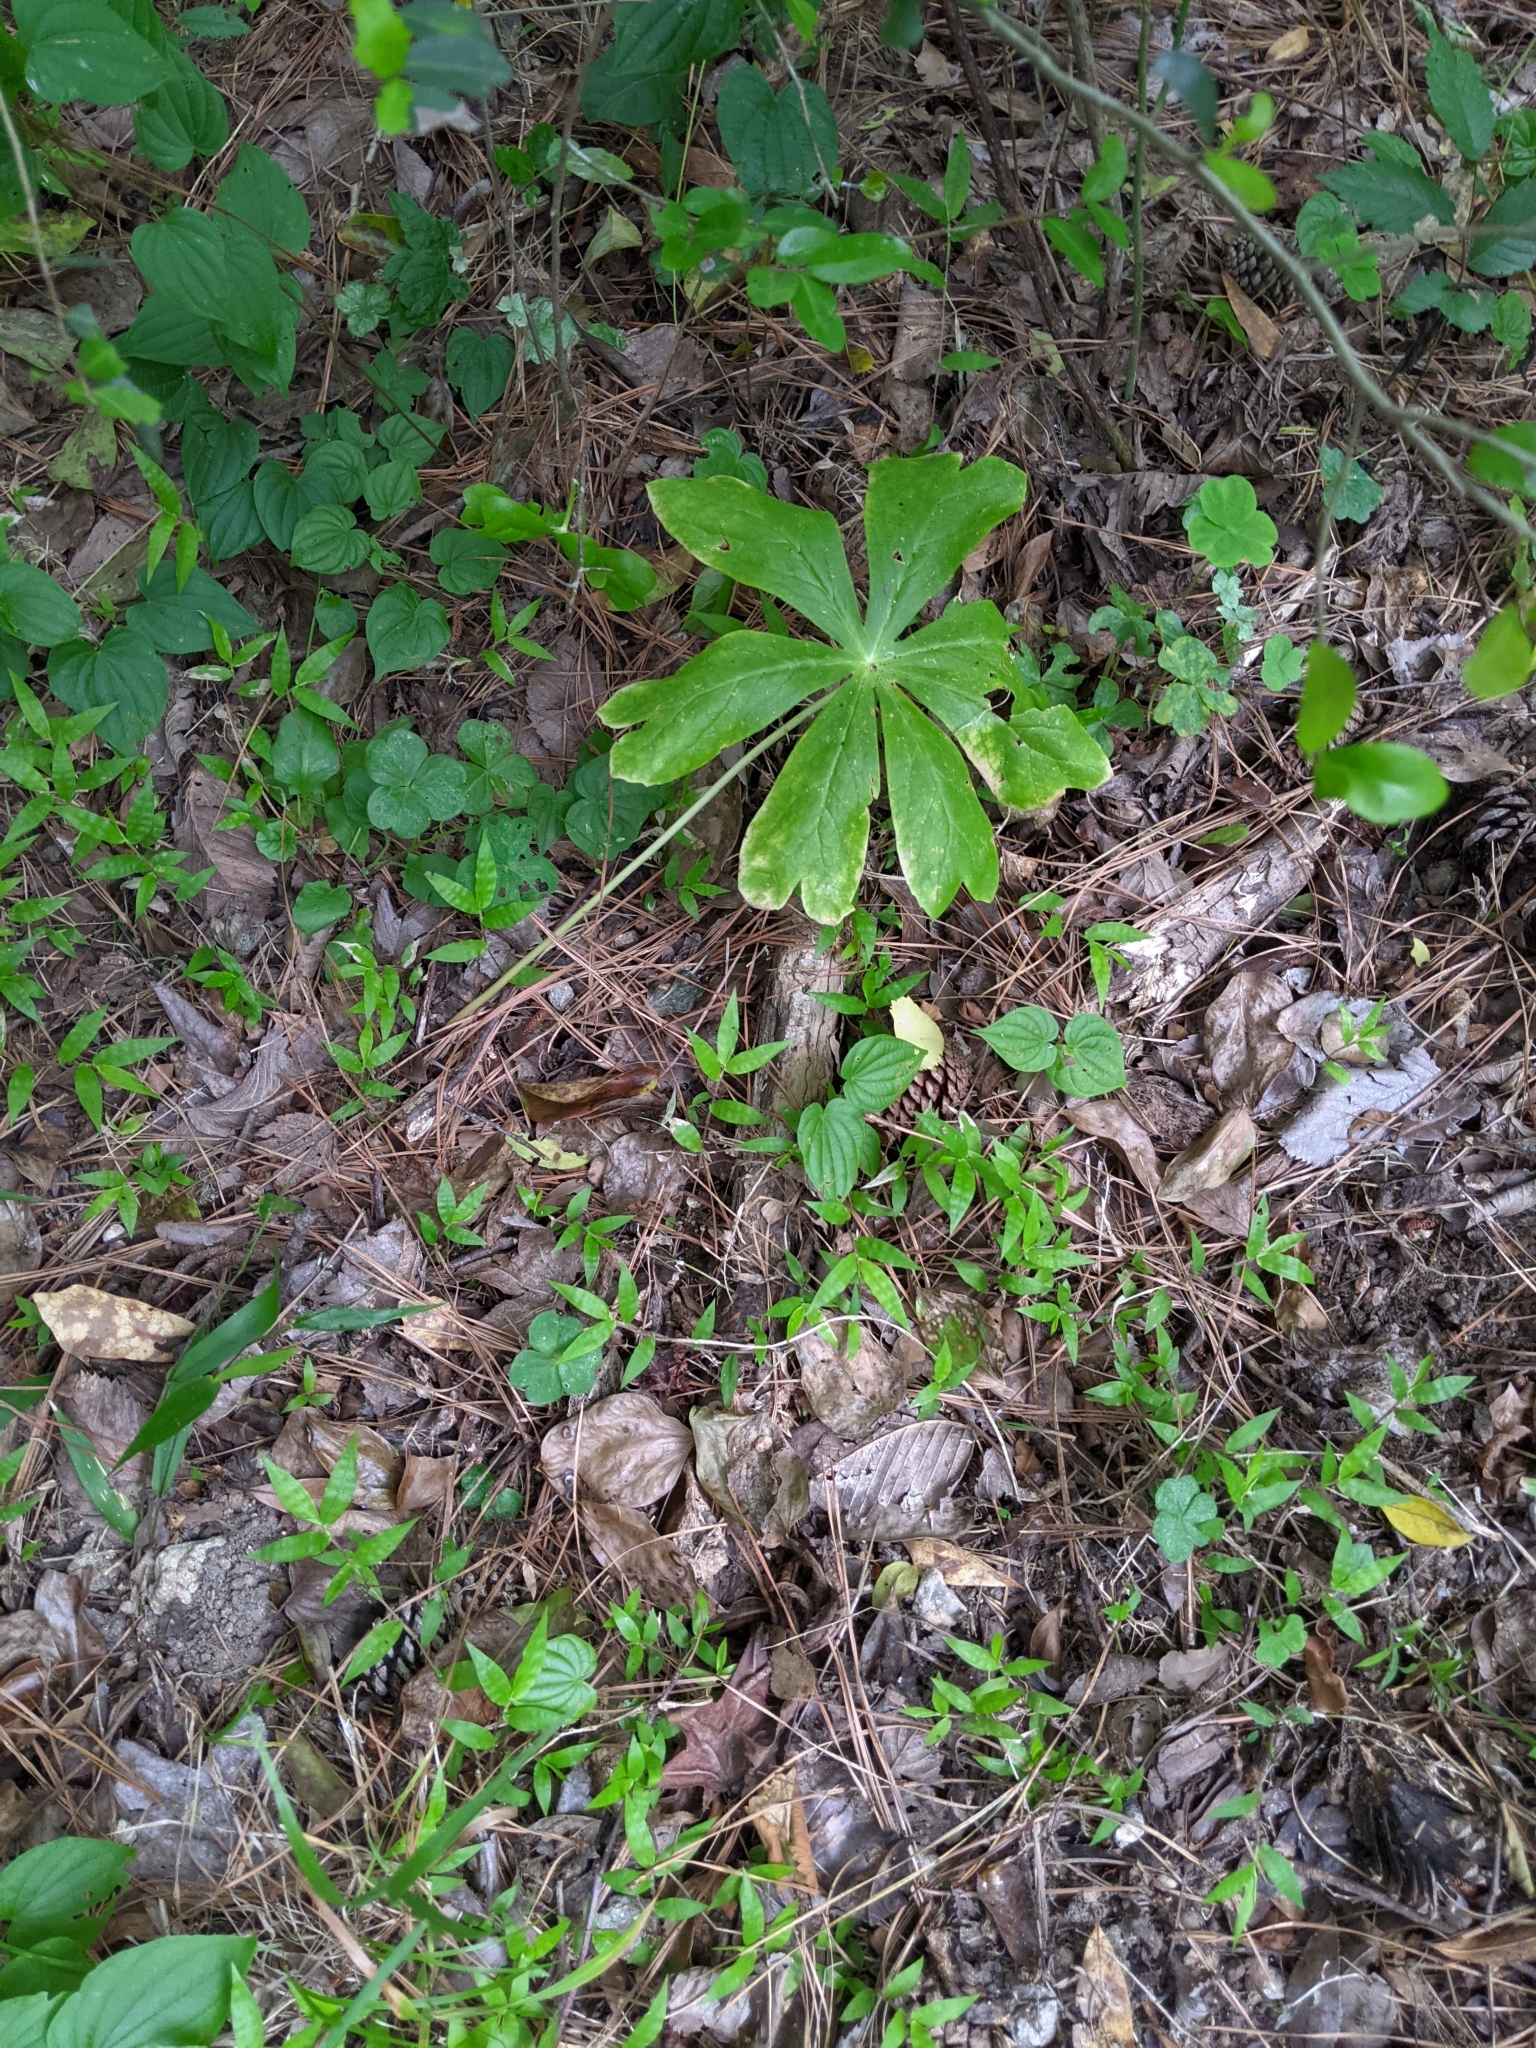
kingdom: Plantae
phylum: Tracheophyta
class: Magnoliopsida
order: Ranunculales
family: Berberidaceae
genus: Podophyllum
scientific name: Podophyllum peltatum
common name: Wild mandrake
